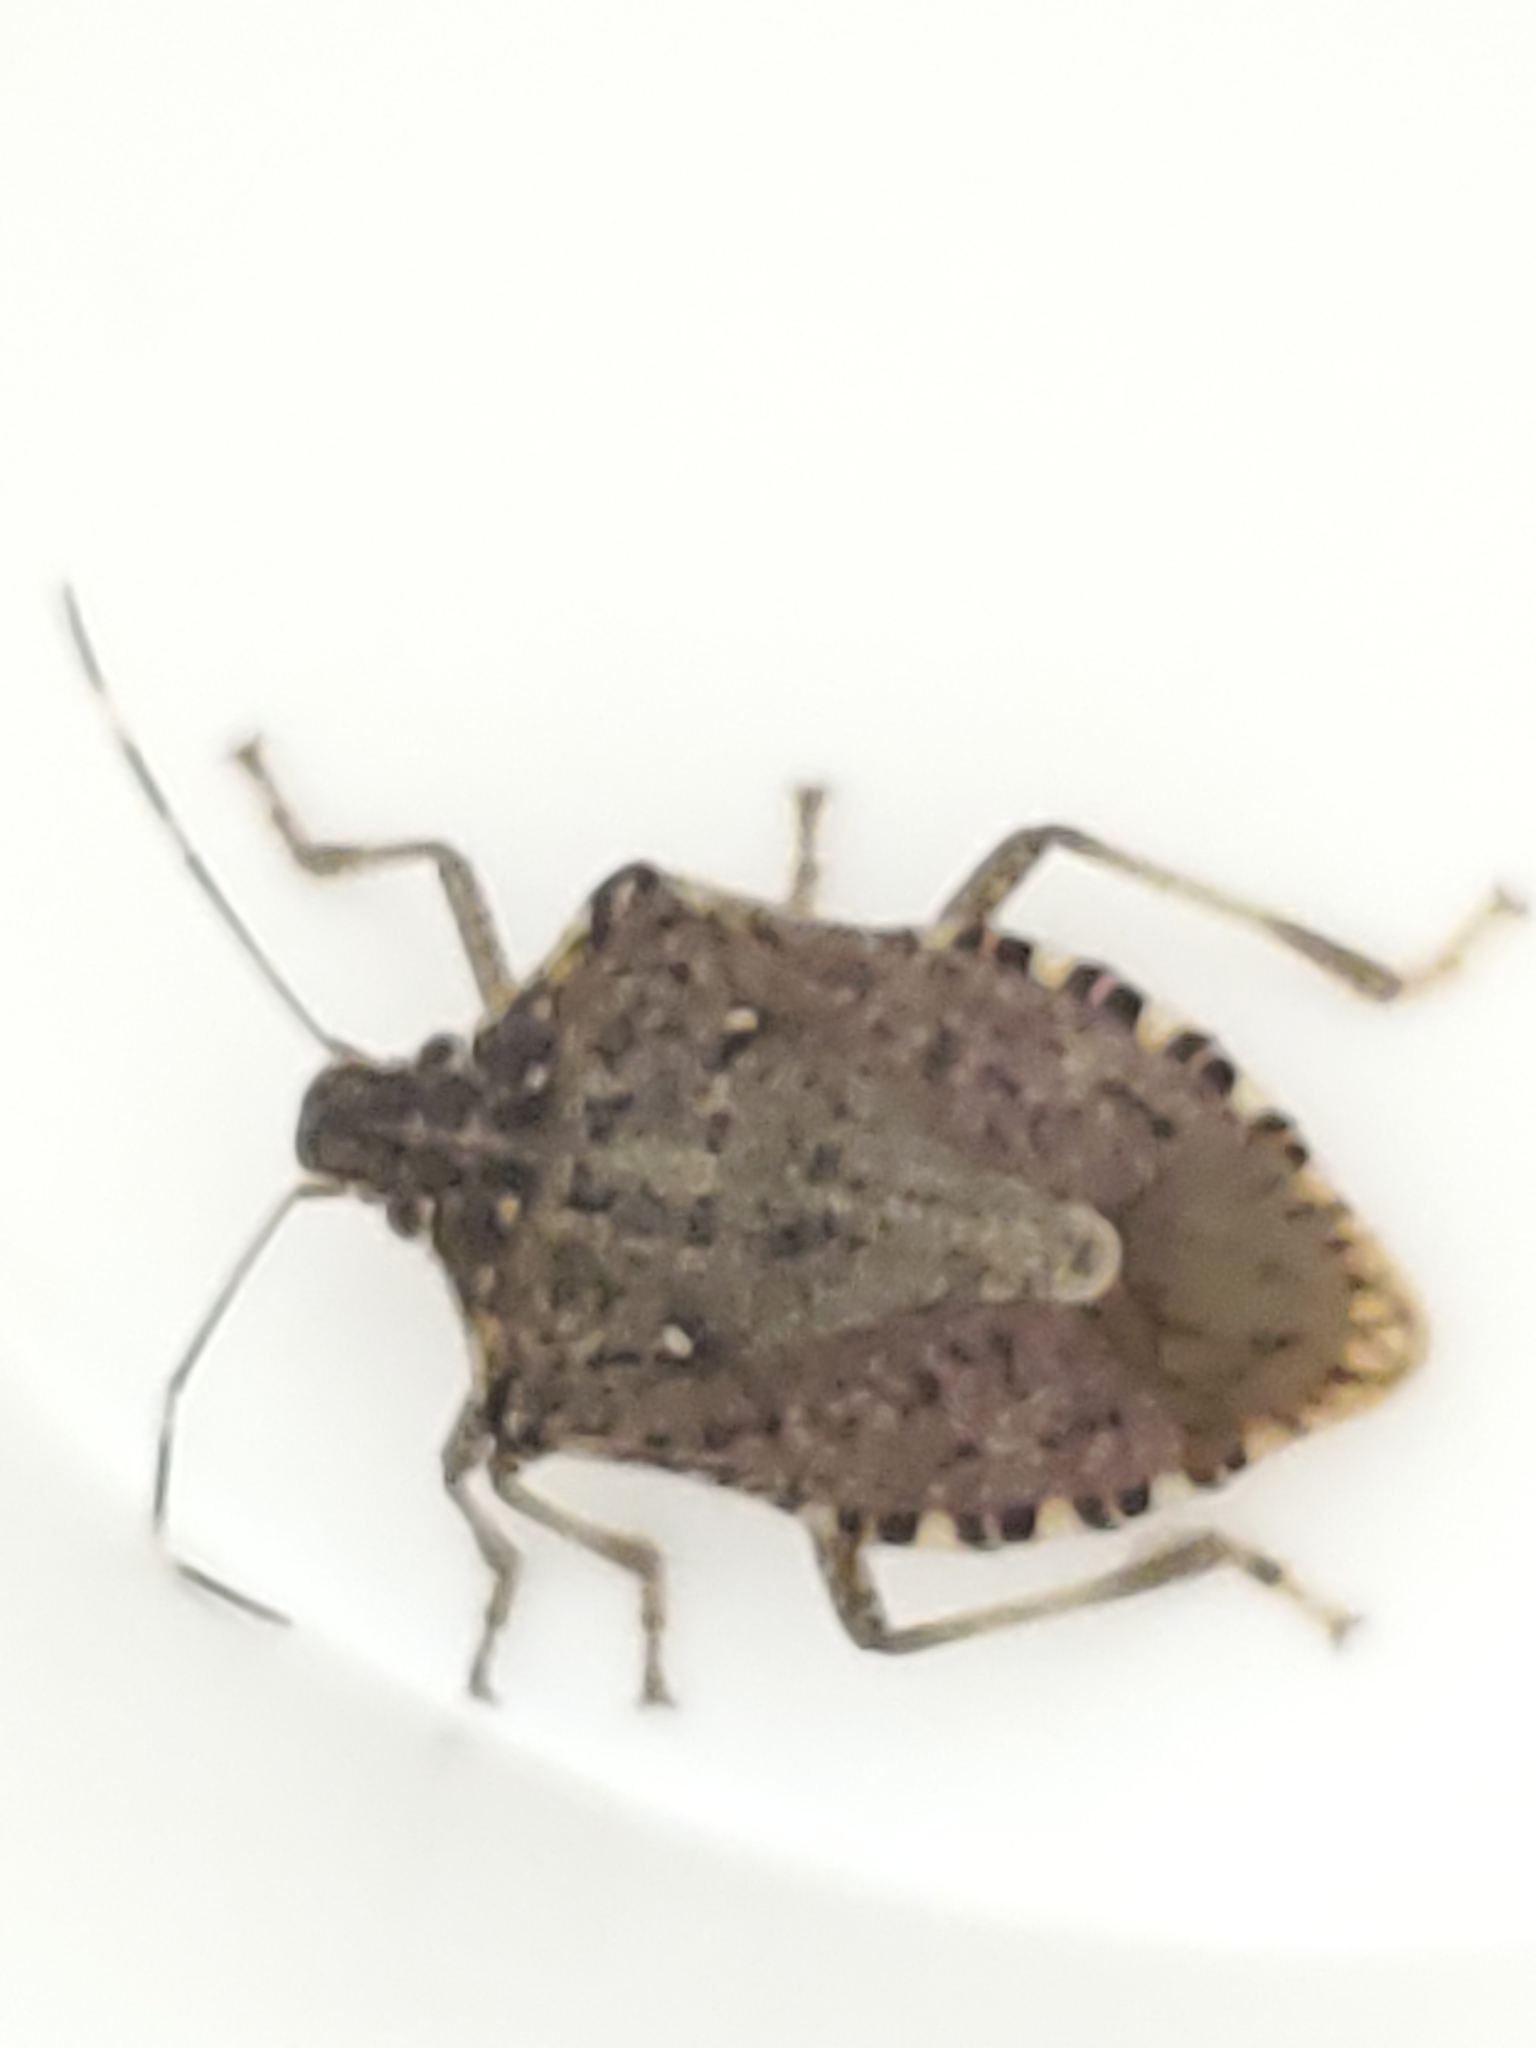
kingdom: Animalia
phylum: Arthropoda
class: Insecta
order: Hemiptera
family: Pentatomidae
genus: Halyomorpha
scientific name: Halyomorpha halys
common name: Brown marmorated stink bug
